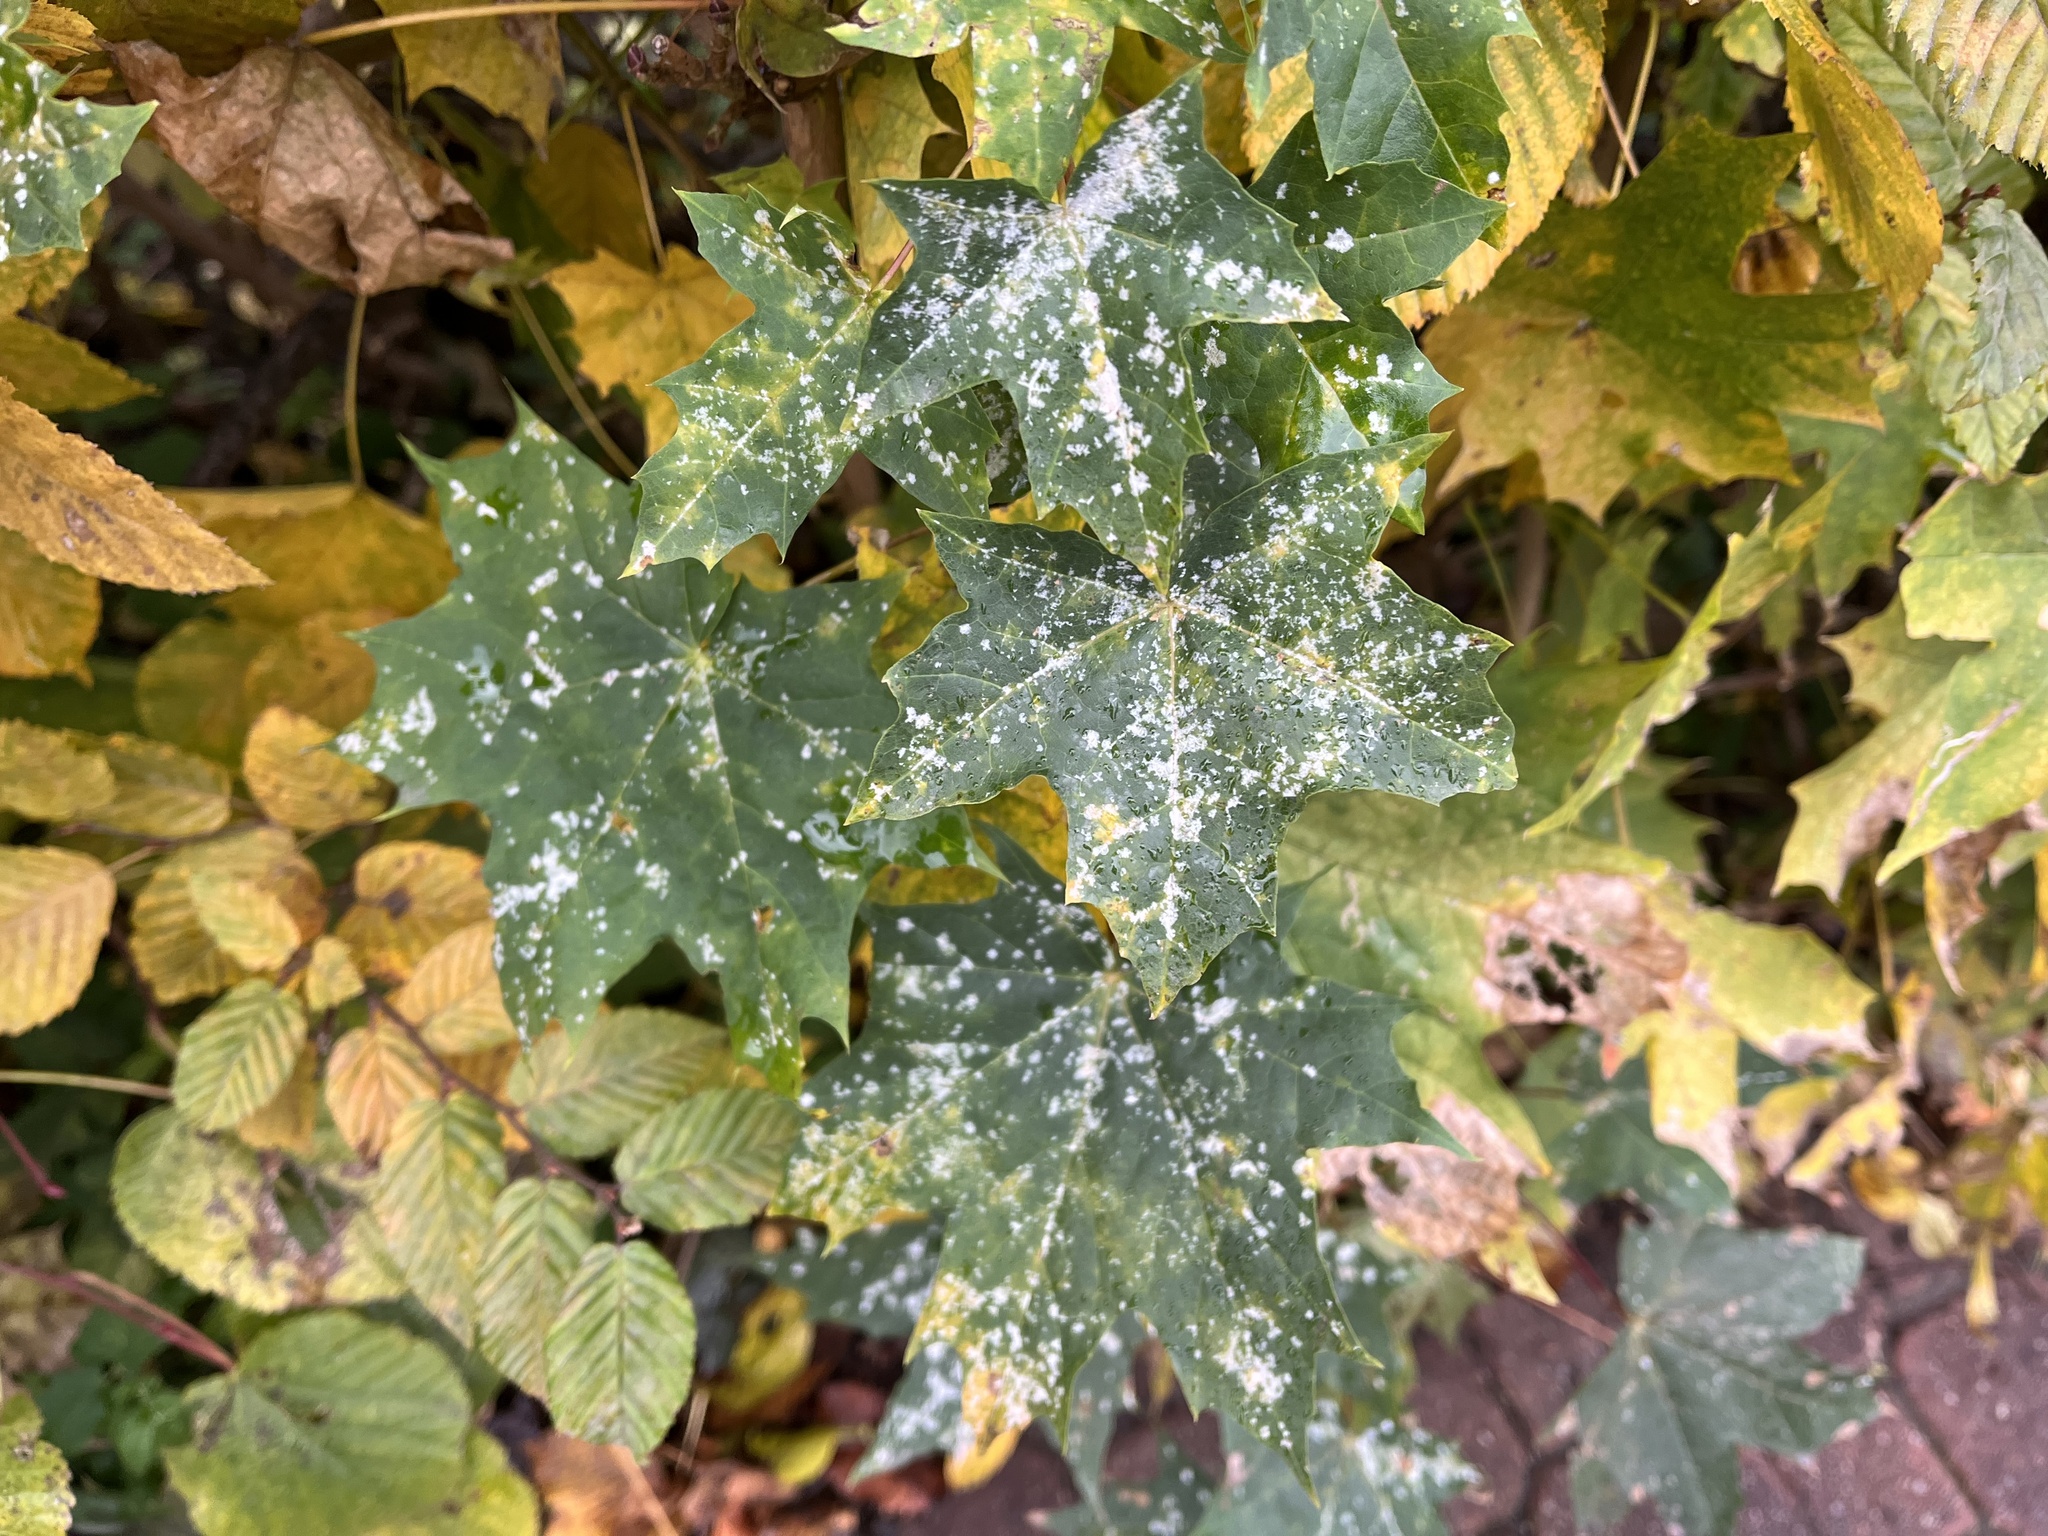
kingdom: Fungi
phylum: Ascomycota
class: Leotiomycetes
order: Helotiales
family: Erysiphaceae
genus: Sawadaea
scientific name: Sawadaea tulasnei
